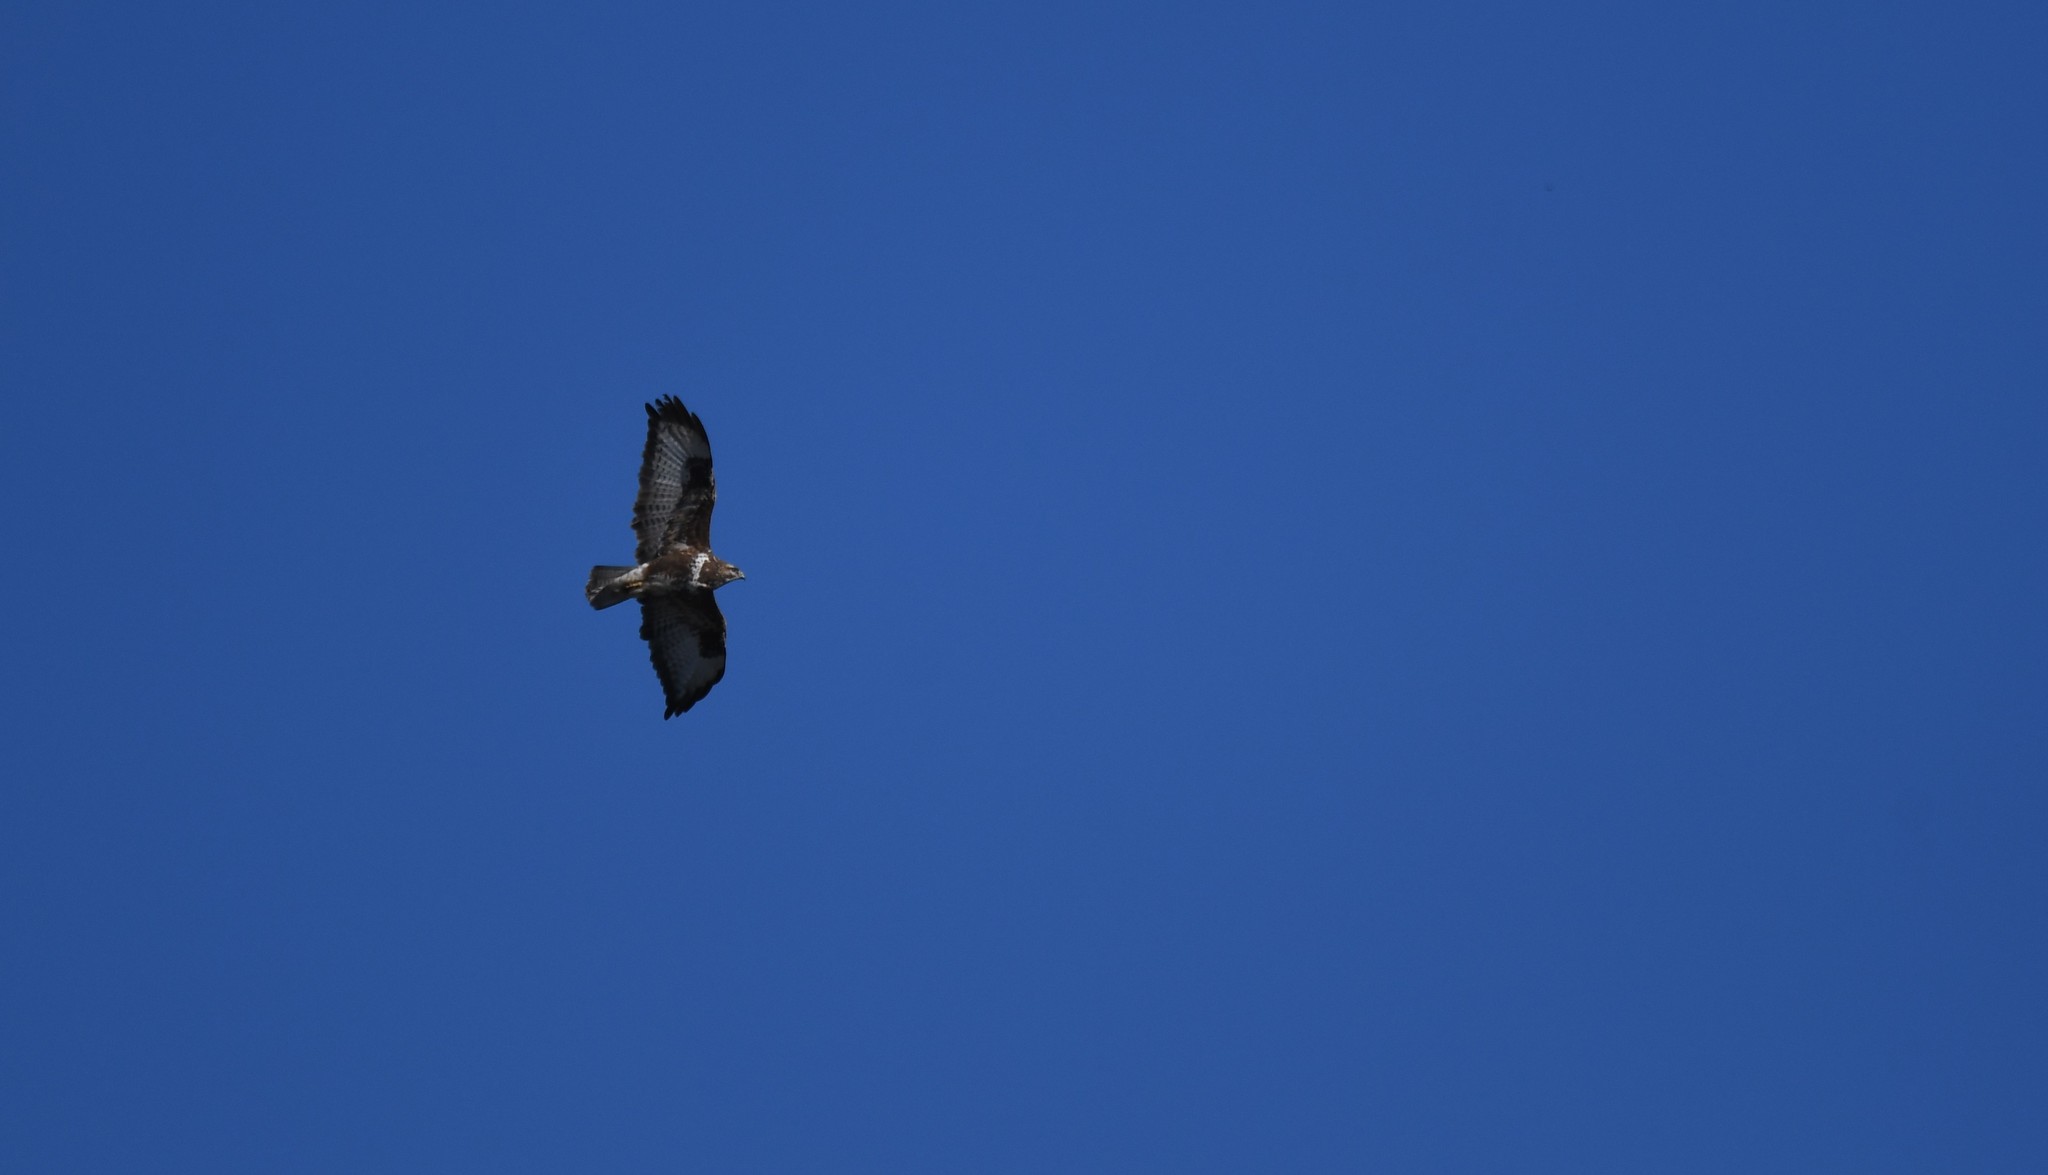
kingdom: Animalia
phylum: Chordata
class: Aves
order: Accipitriformes
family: Accipitridae
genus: Buteo
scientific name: Buteo buteo
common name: Common buzzard
